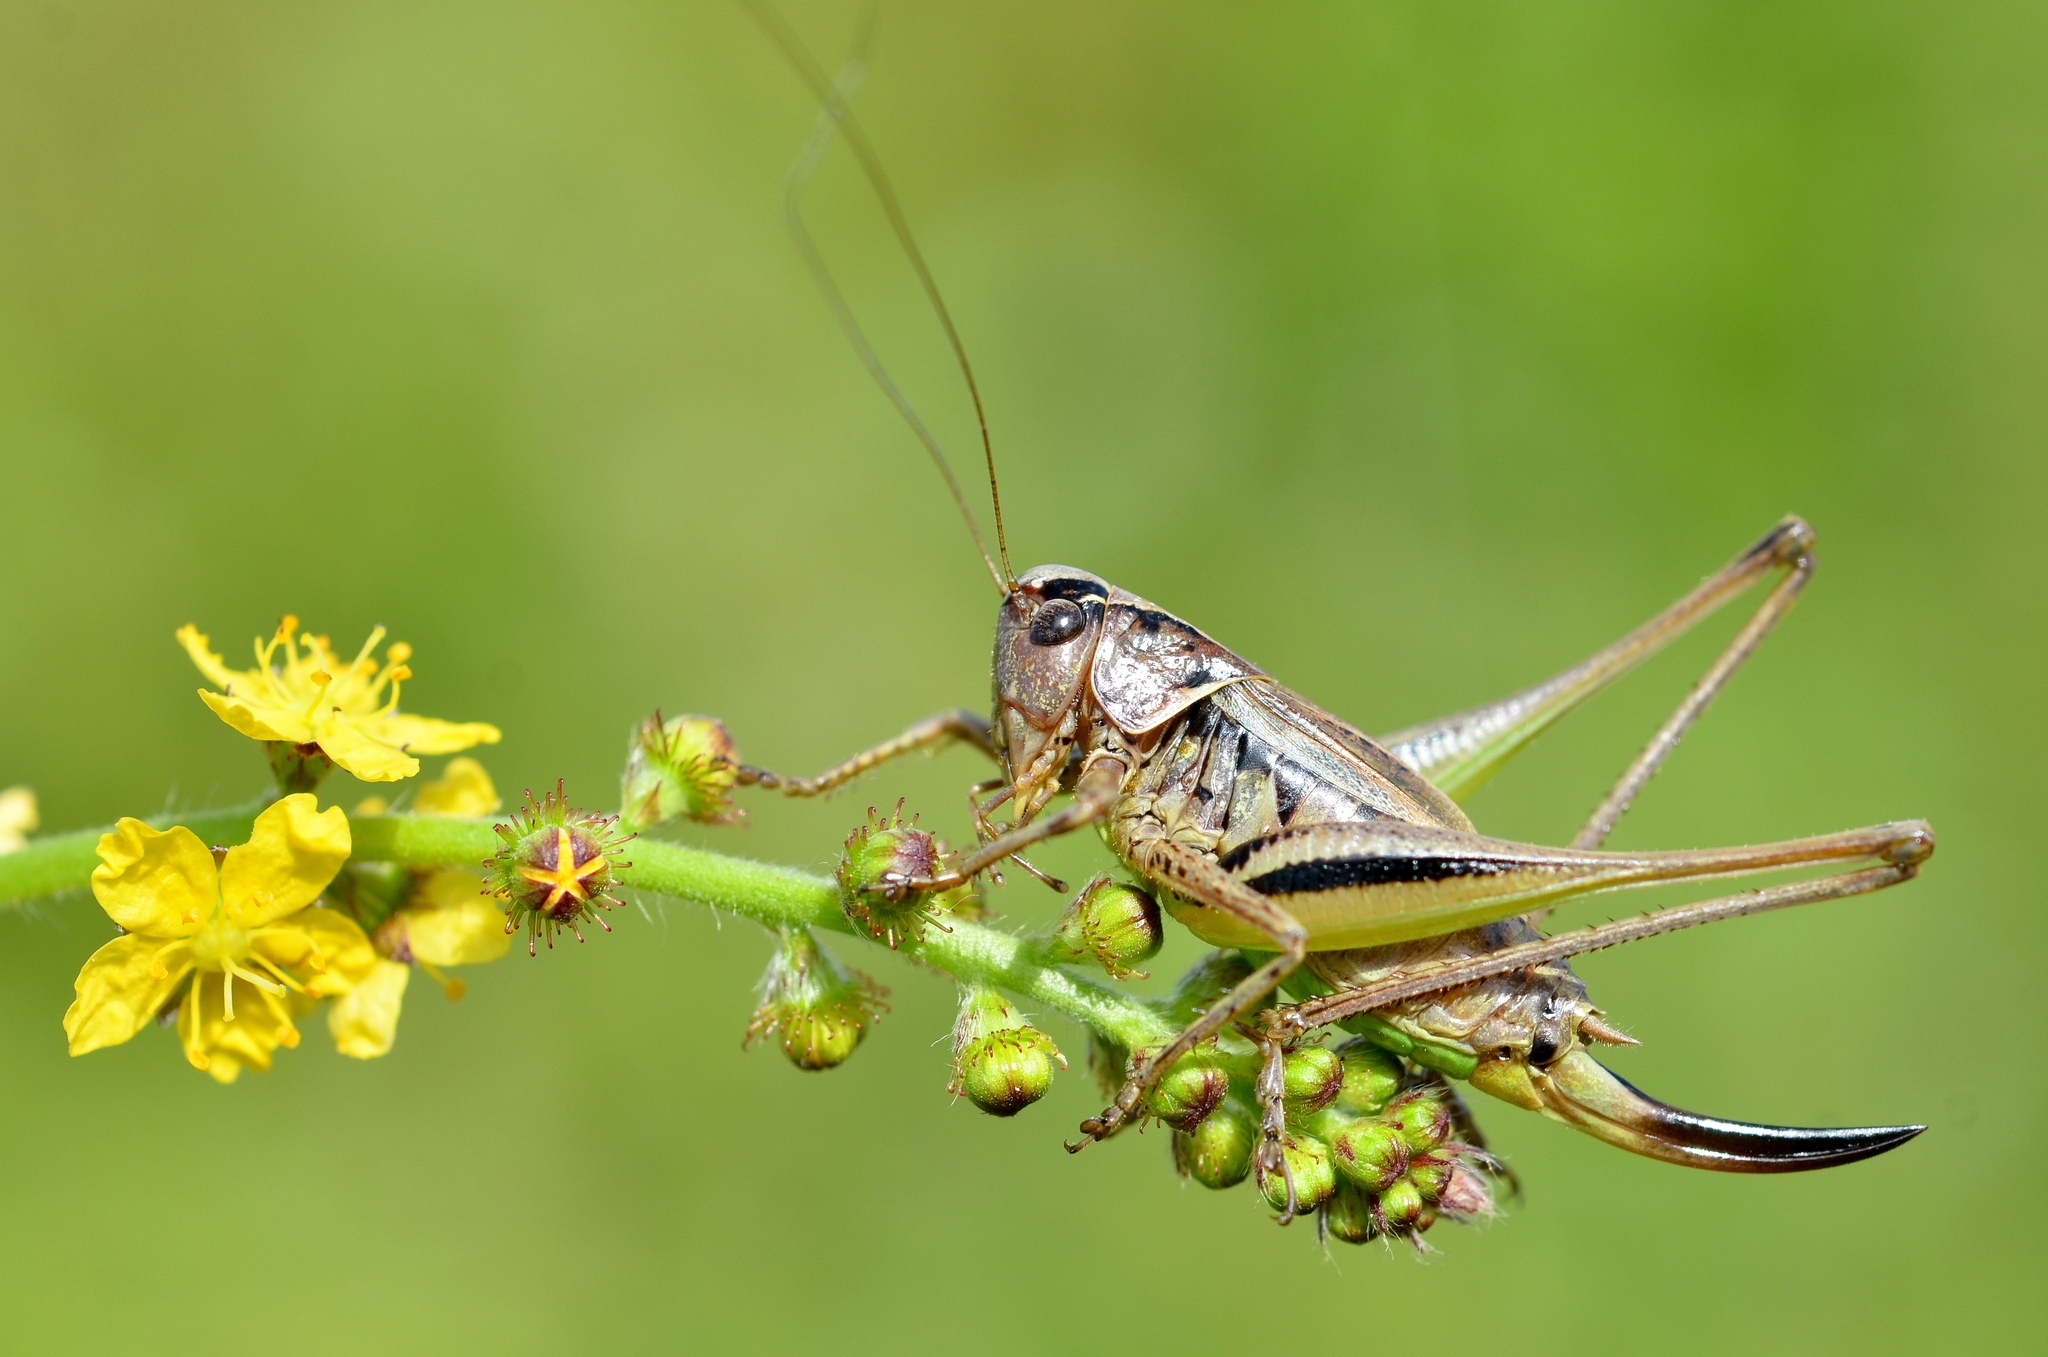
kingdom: Animalia
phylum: Arthropoda
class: Insecta
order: Orthoptera
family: Tettigoniidae
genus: Metrioptera
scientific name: Metrioptera brachyptera
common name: Bog bush-cricket
